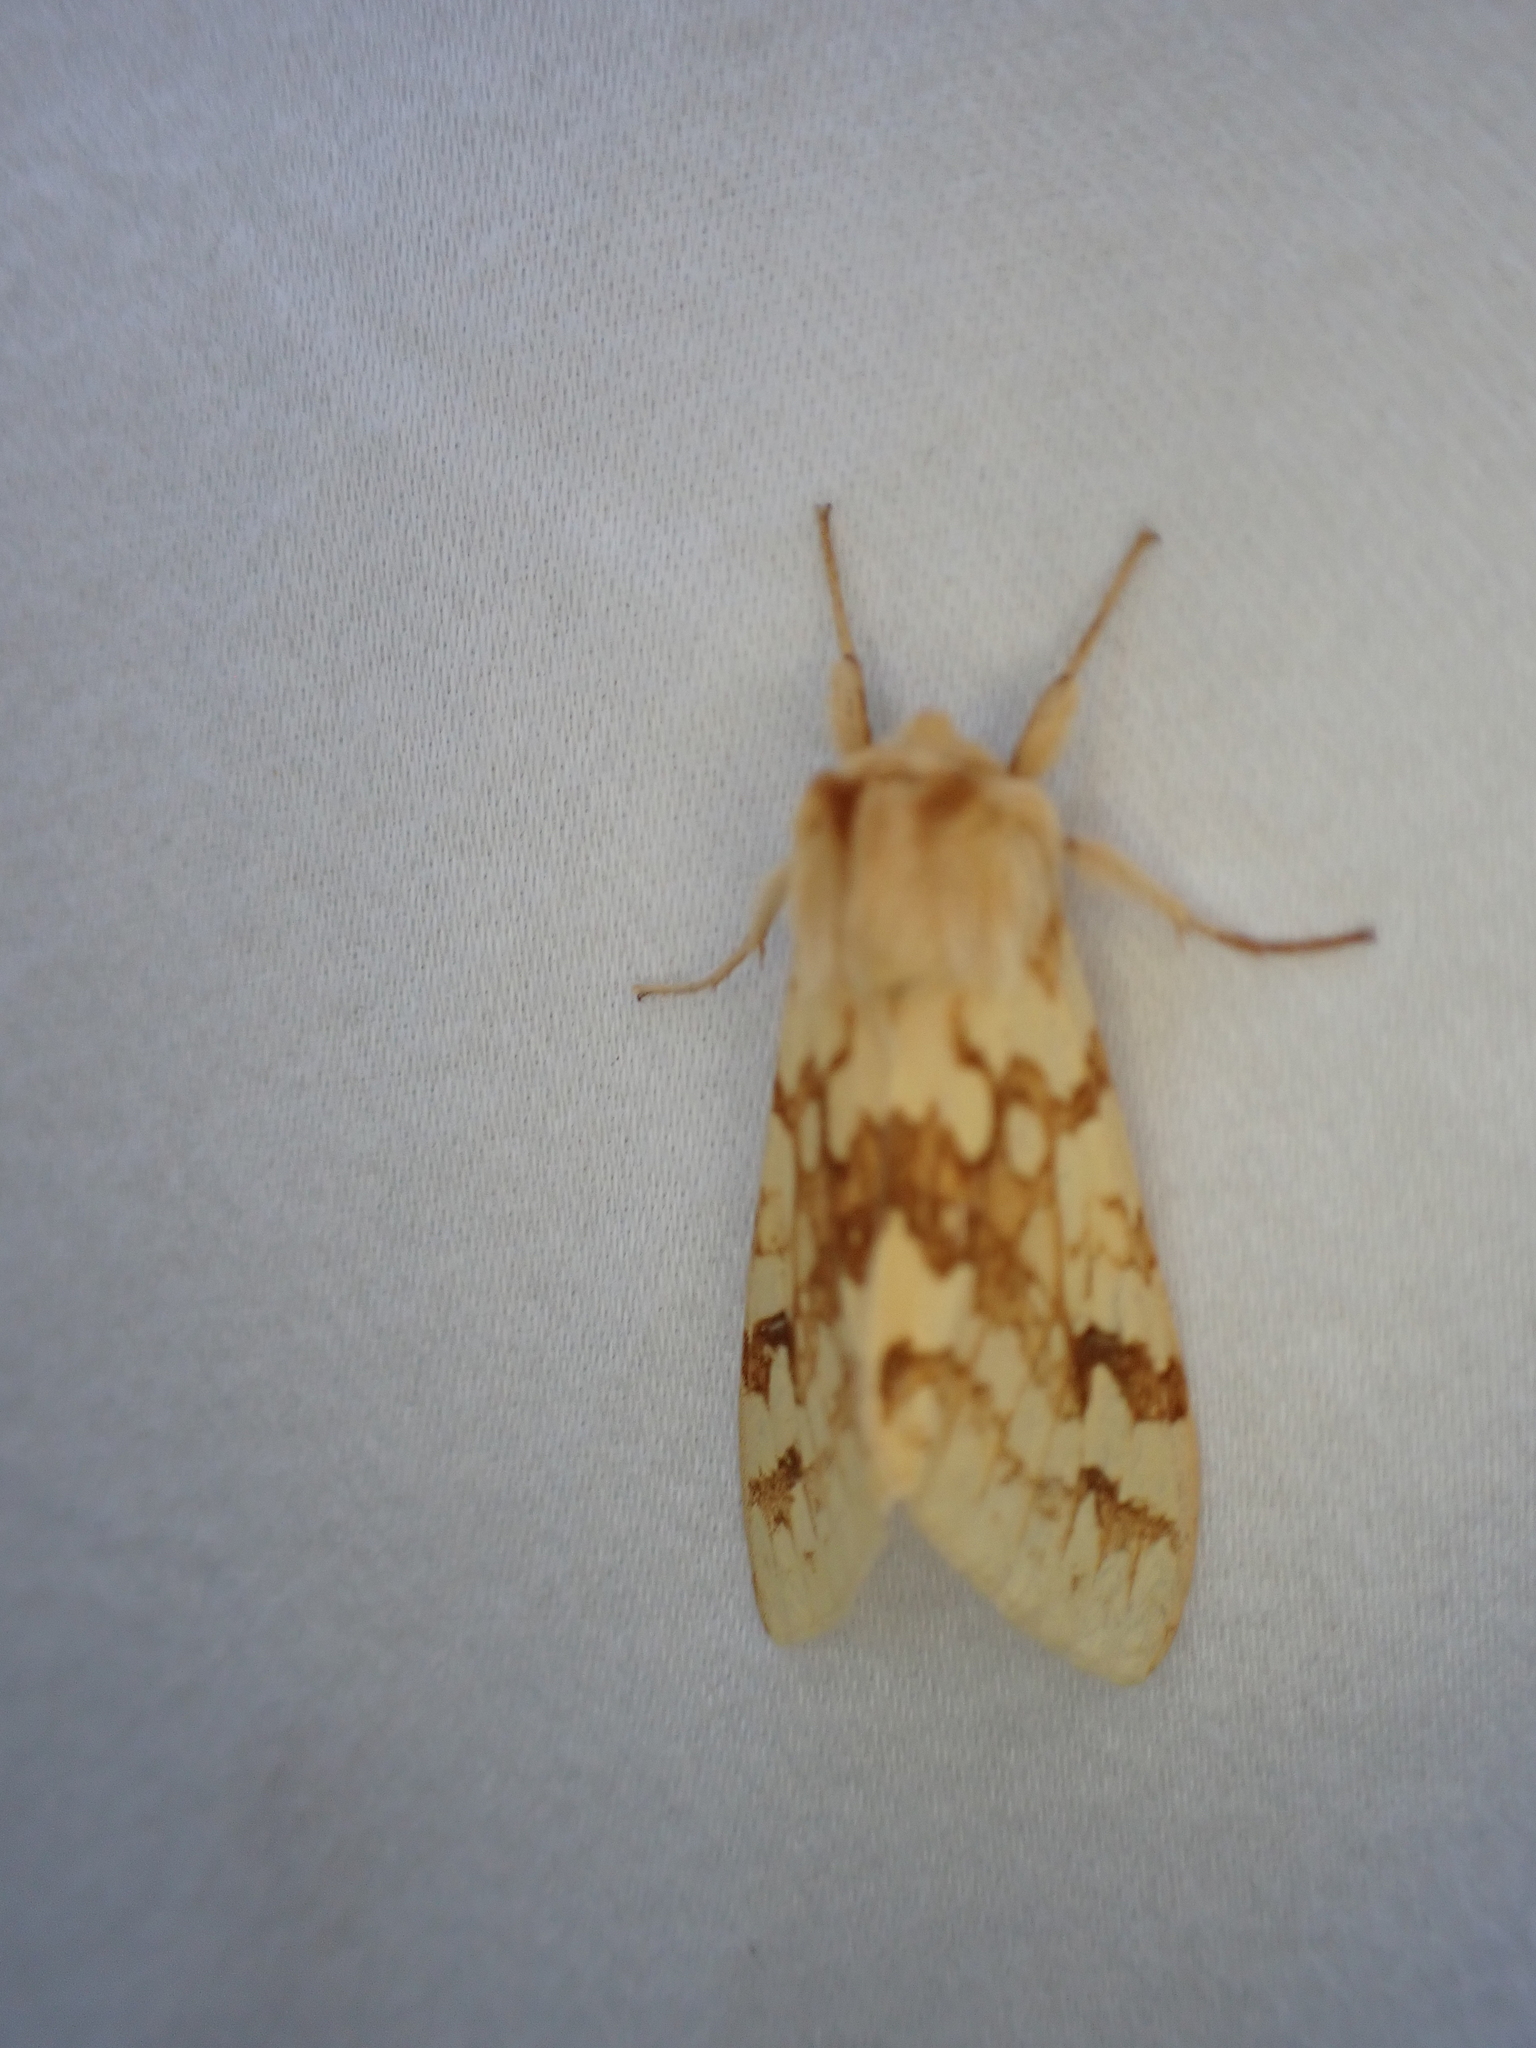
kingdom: Animalia
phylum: Arthropoda
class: Insecta
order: Lepidoptera
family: Erebidae
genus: Lophocampa
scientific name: Lophocampa maculata
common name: Spotted tussock moth
